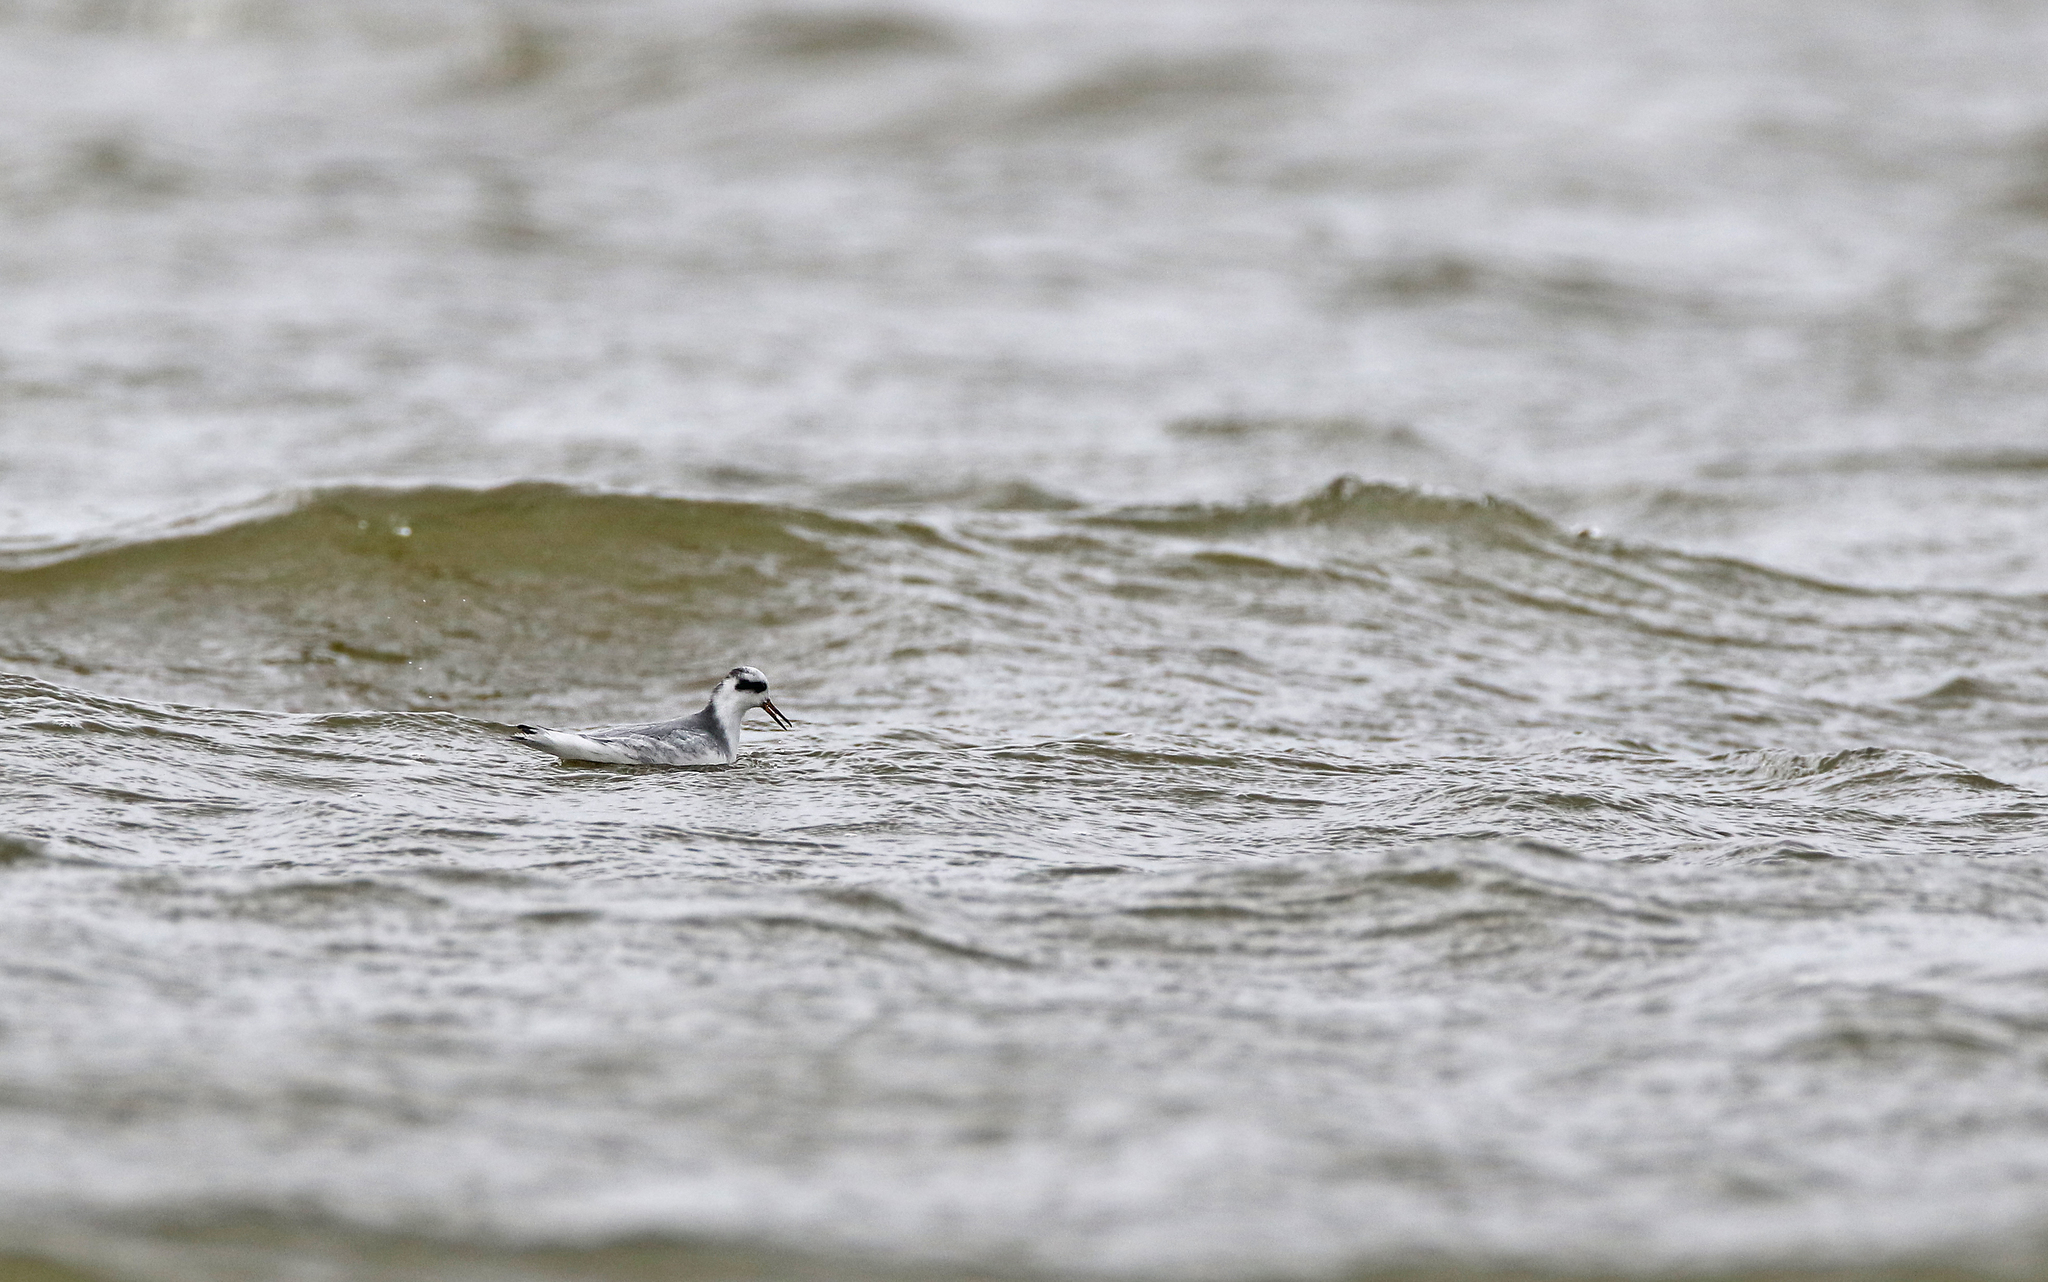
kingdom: Animalia
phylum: Chordata
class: Aves
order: Charadriiformes
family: Scolopacidae
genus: Phalaropus
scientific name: Phalaropus fulicarius
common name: Red phalarope
